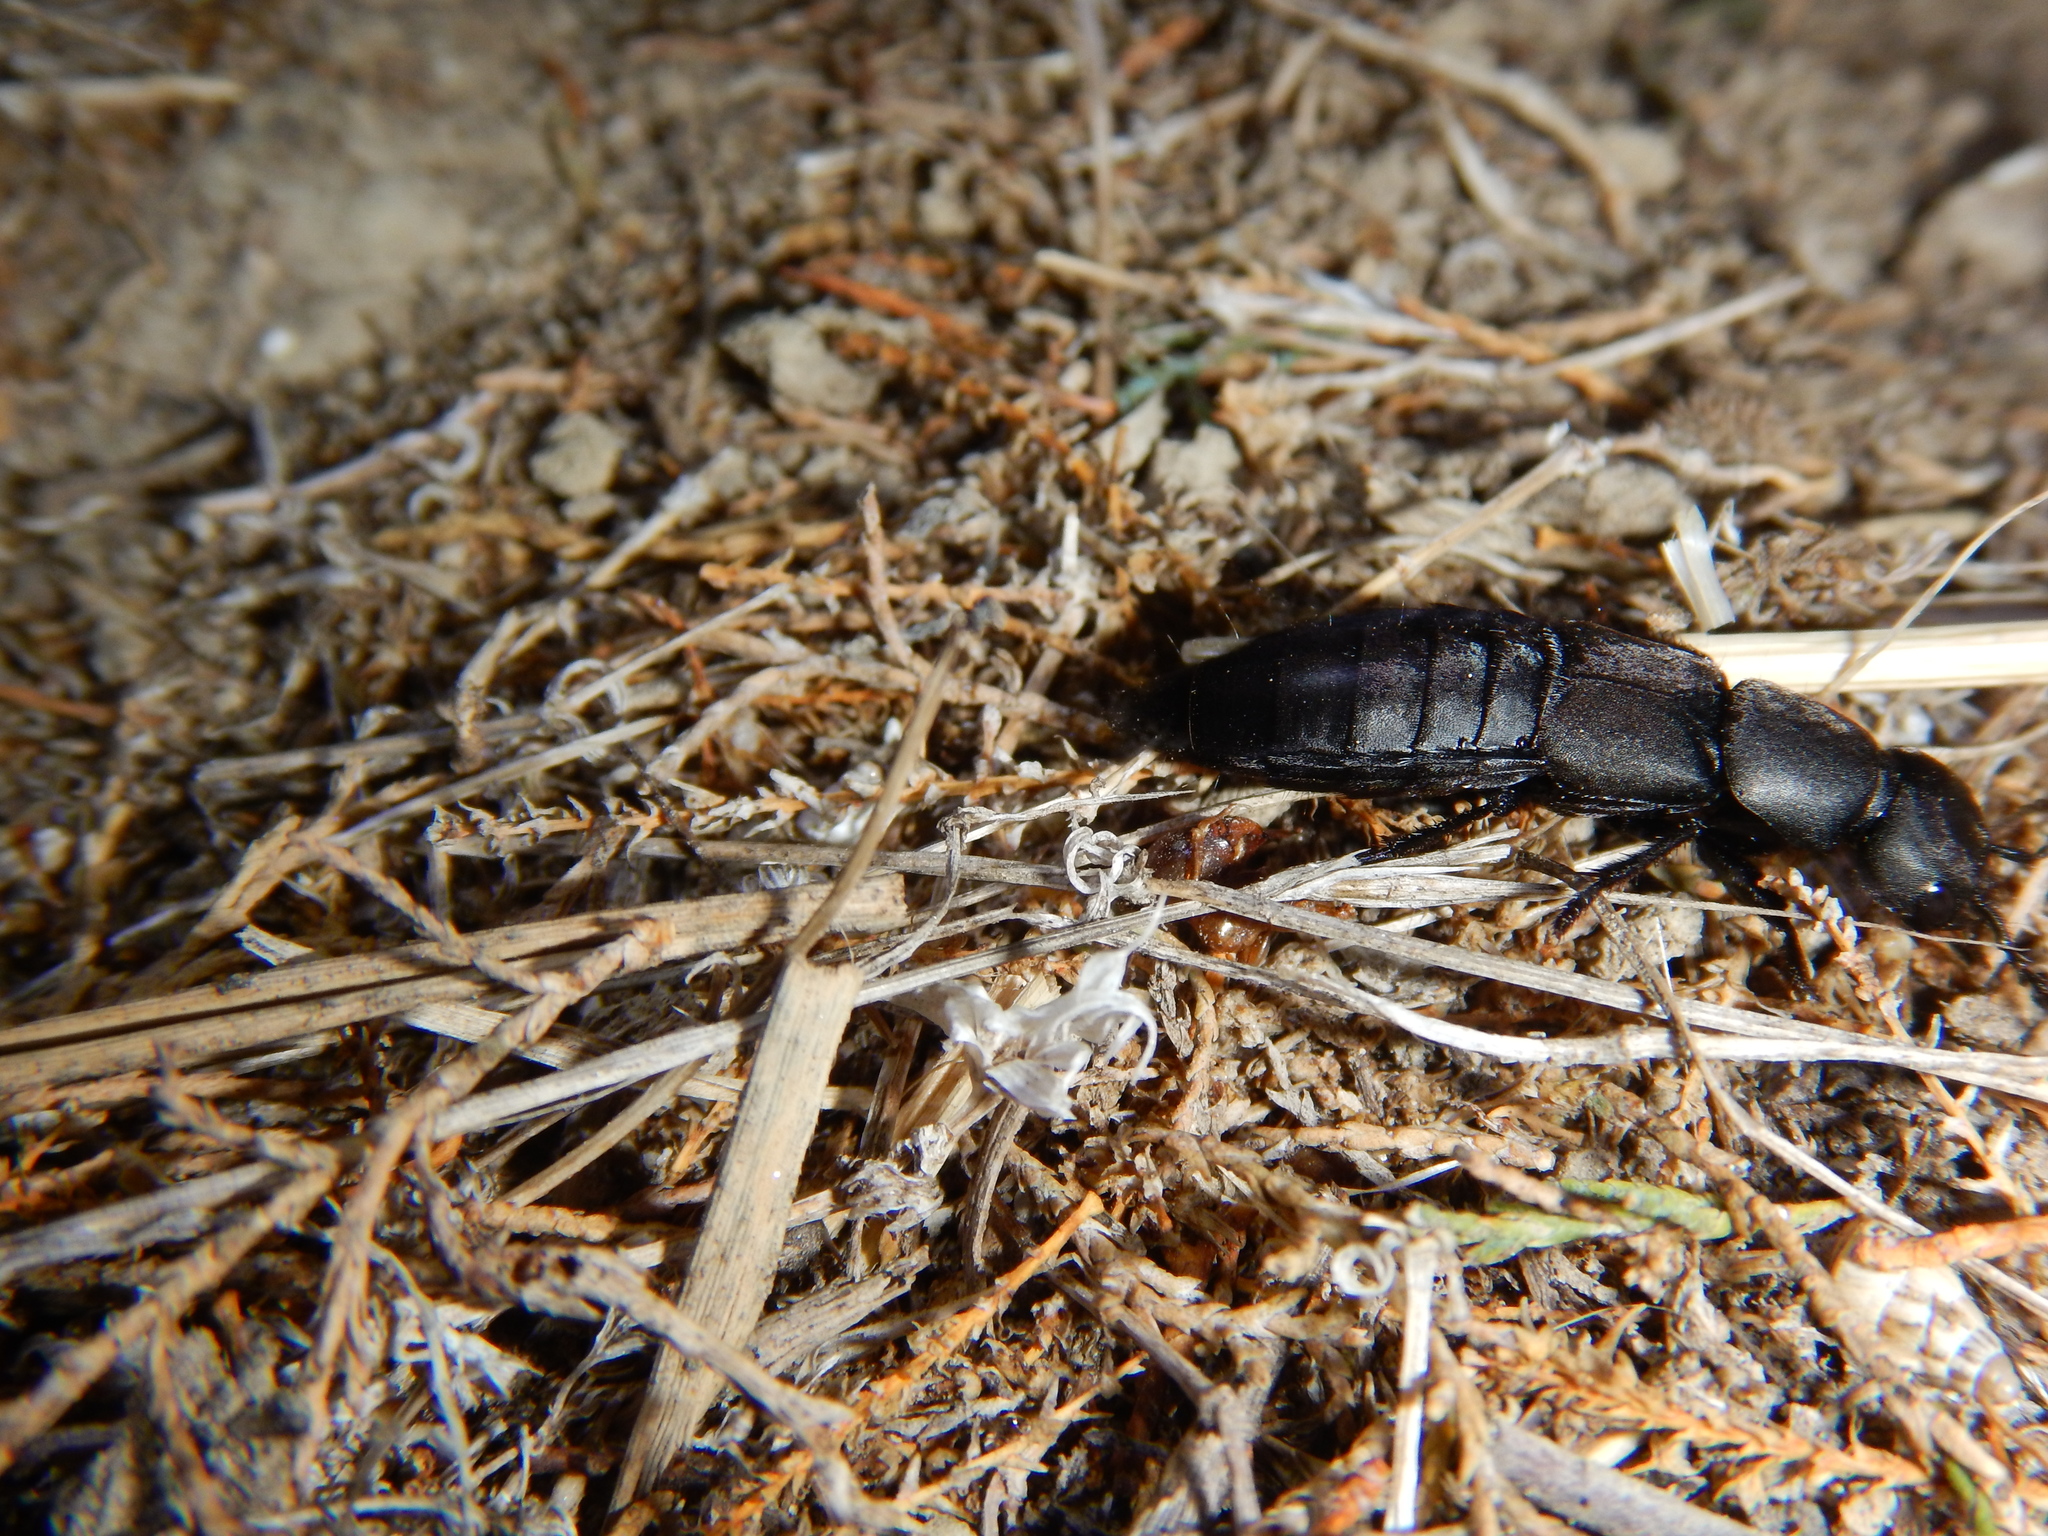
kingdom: Animalia
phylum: Arthropoda
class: Insecta
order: Coleoptera
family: Staphylinidae
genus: Ocypus
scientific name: Ocypus olens
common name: Devil's coach-horse
